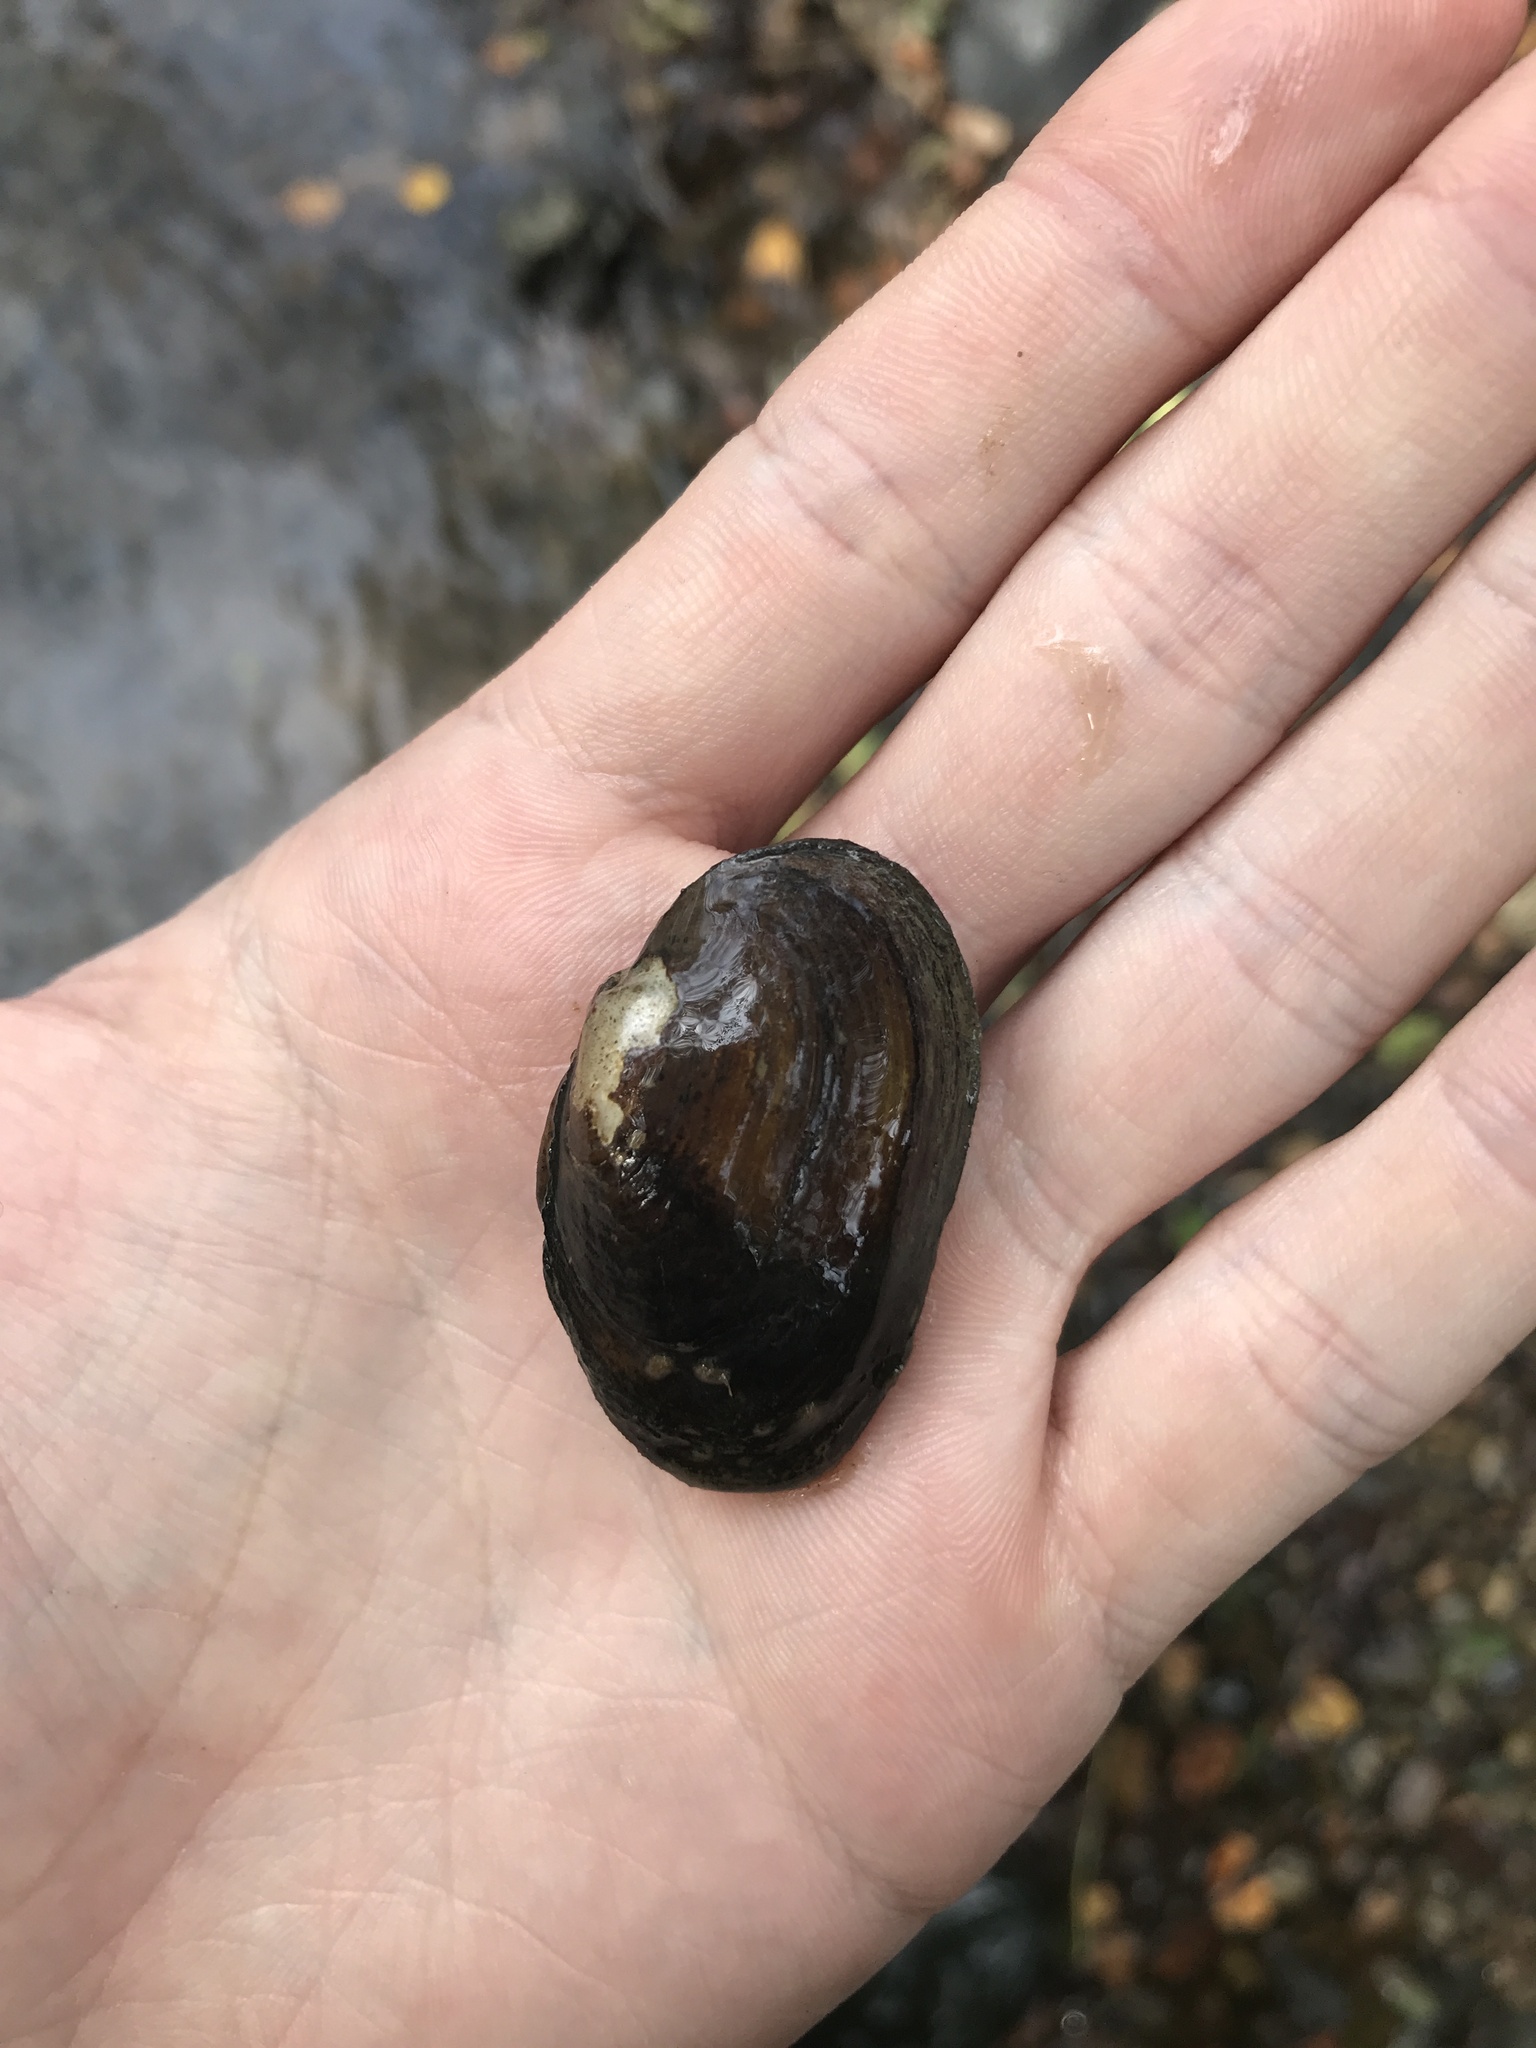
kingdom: Animalia
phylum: Mollusca
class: Bivalvia
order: Unionida
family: Unionidae
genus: Unio
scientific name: Unio crassus
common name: Thick shelled river mussel
